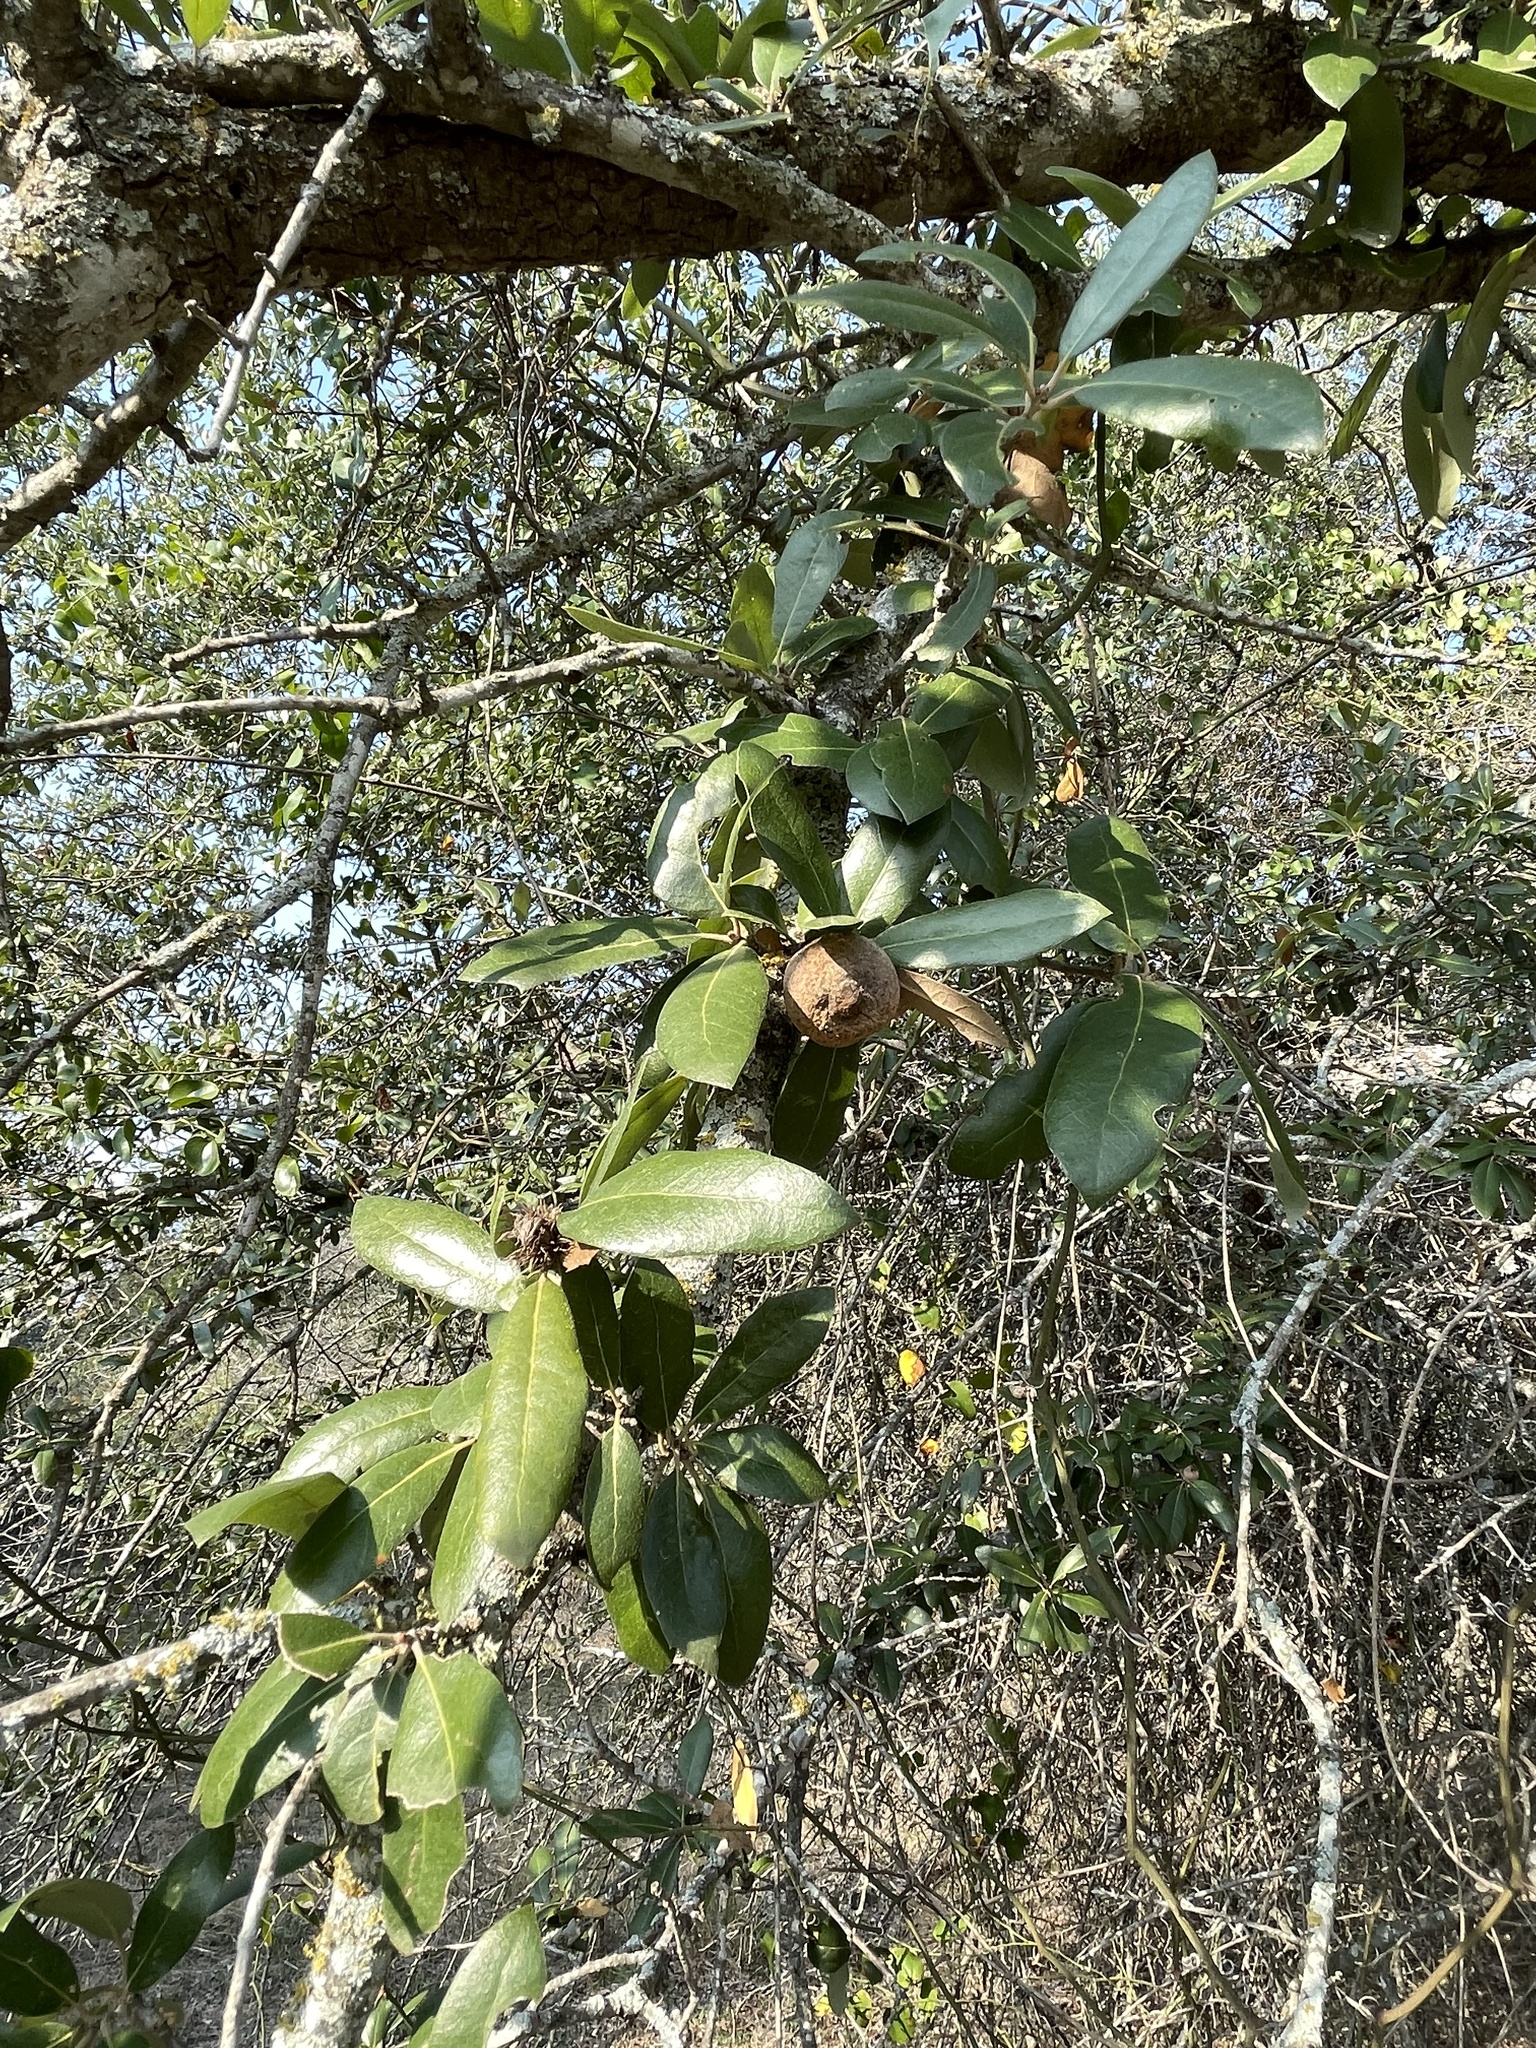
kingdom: Animalia
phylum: Arthropoda
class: Insecta
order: Hymenoptera
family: Cynipidae
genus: Disholcaspis
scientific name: Disholcaspis
